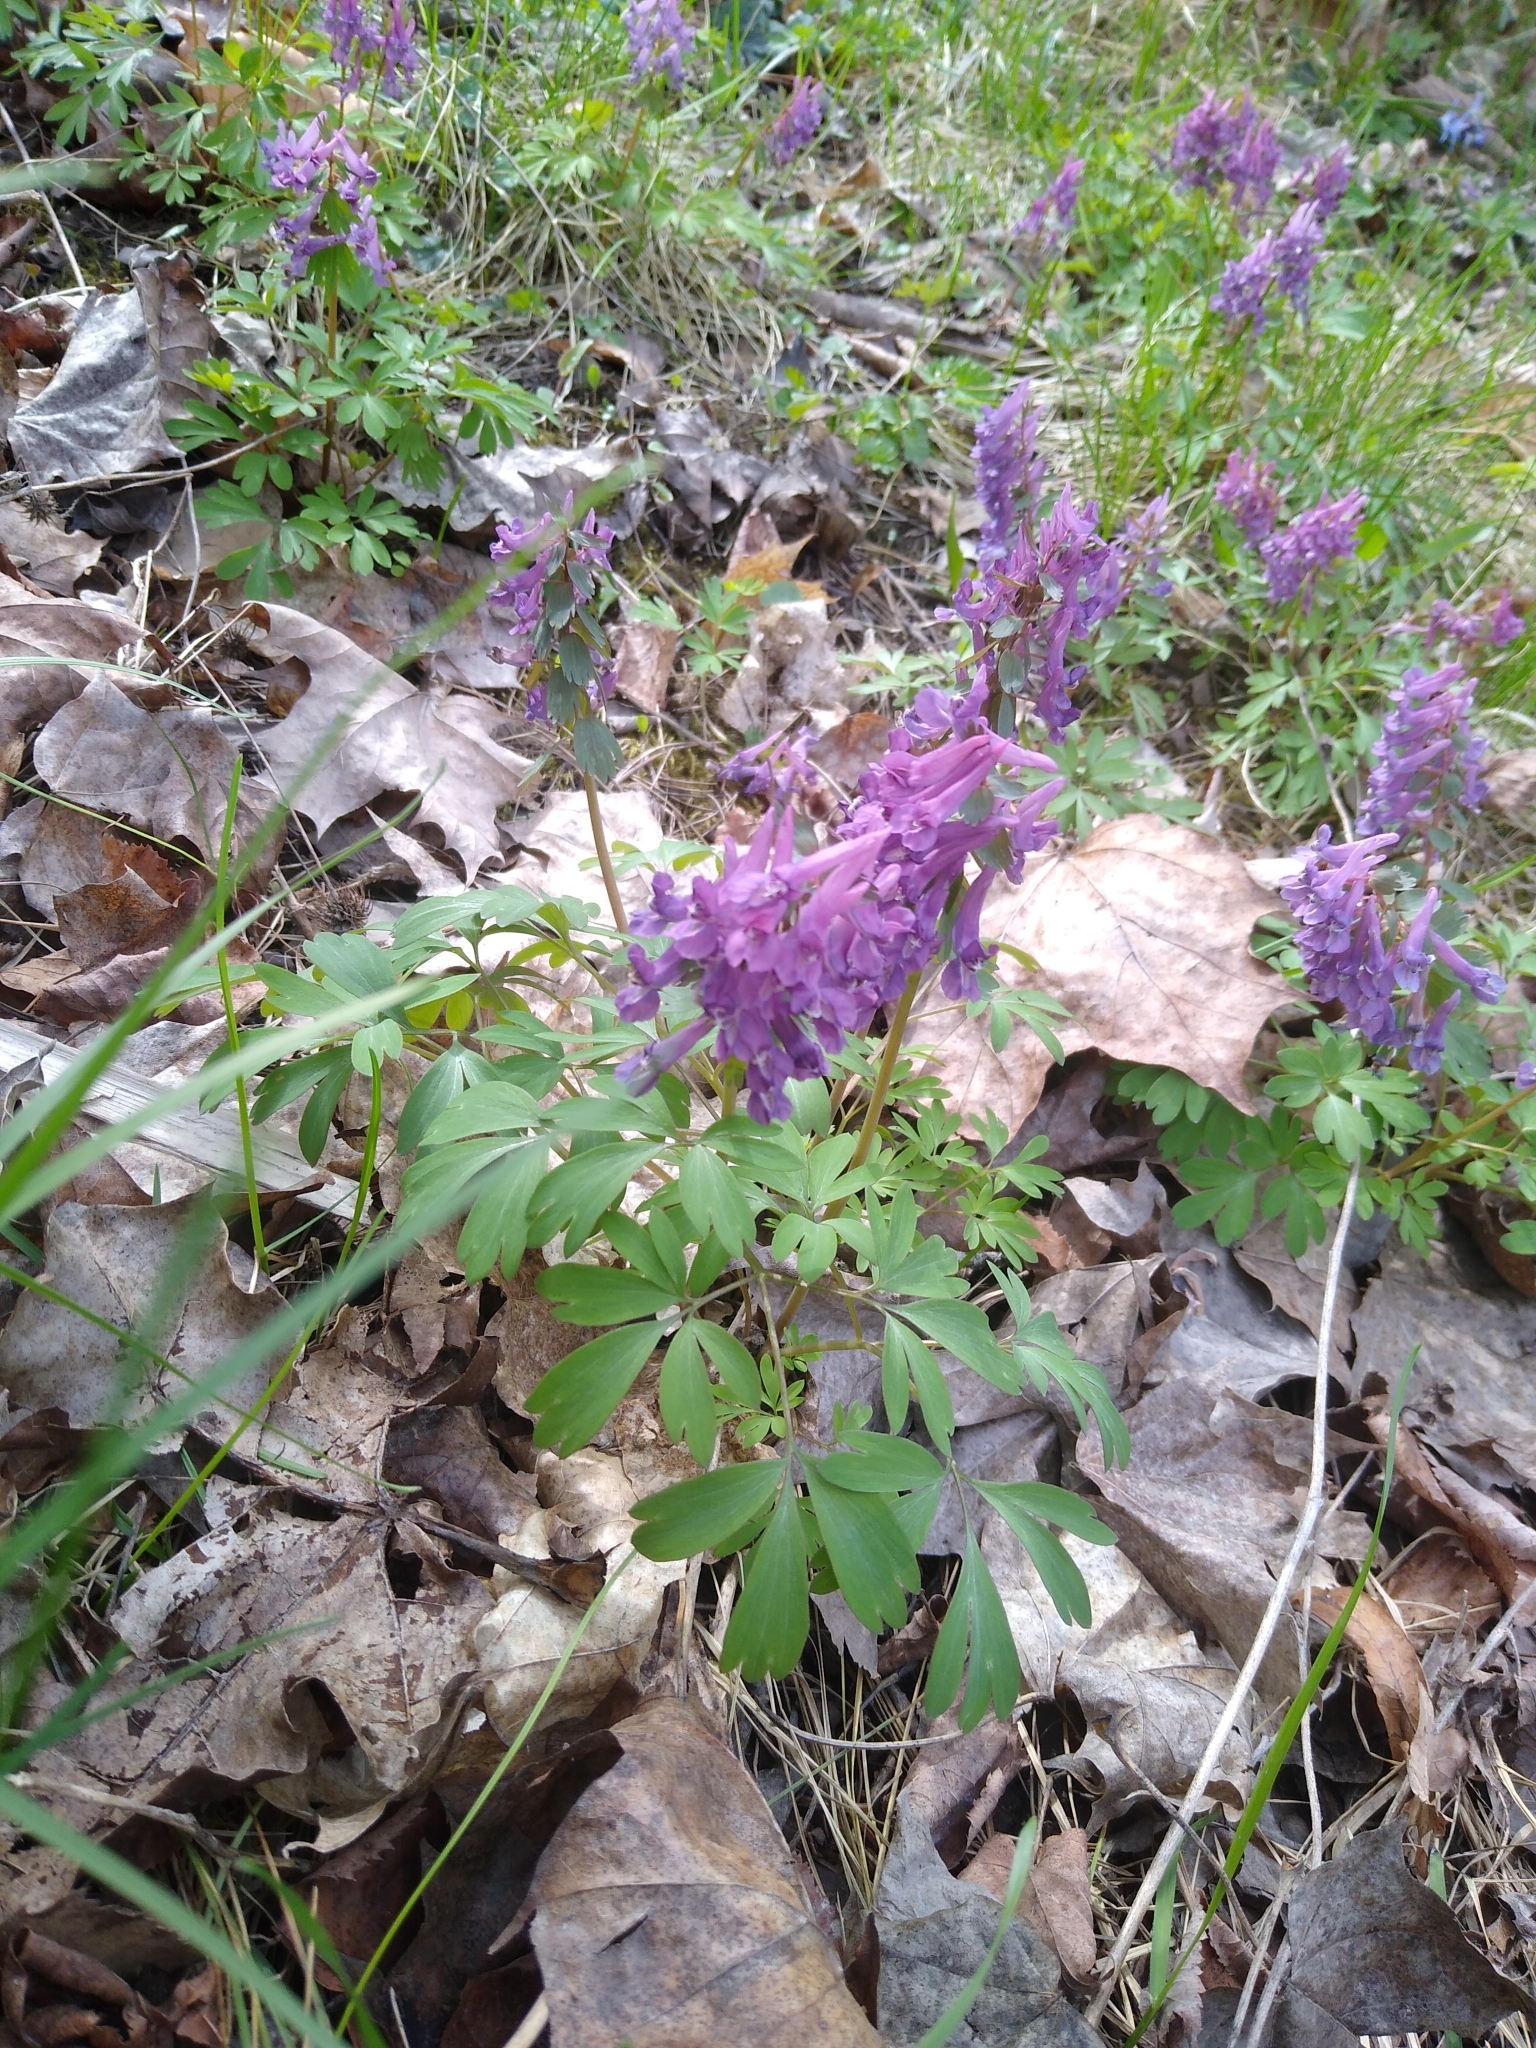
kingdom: Plantae
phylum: Tracheophyta
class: Magnoliopsida
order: Ranunculales
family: Papaveraceae
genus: Corydalis
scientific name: Corydalis solida
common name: Bird-in-a-bush
